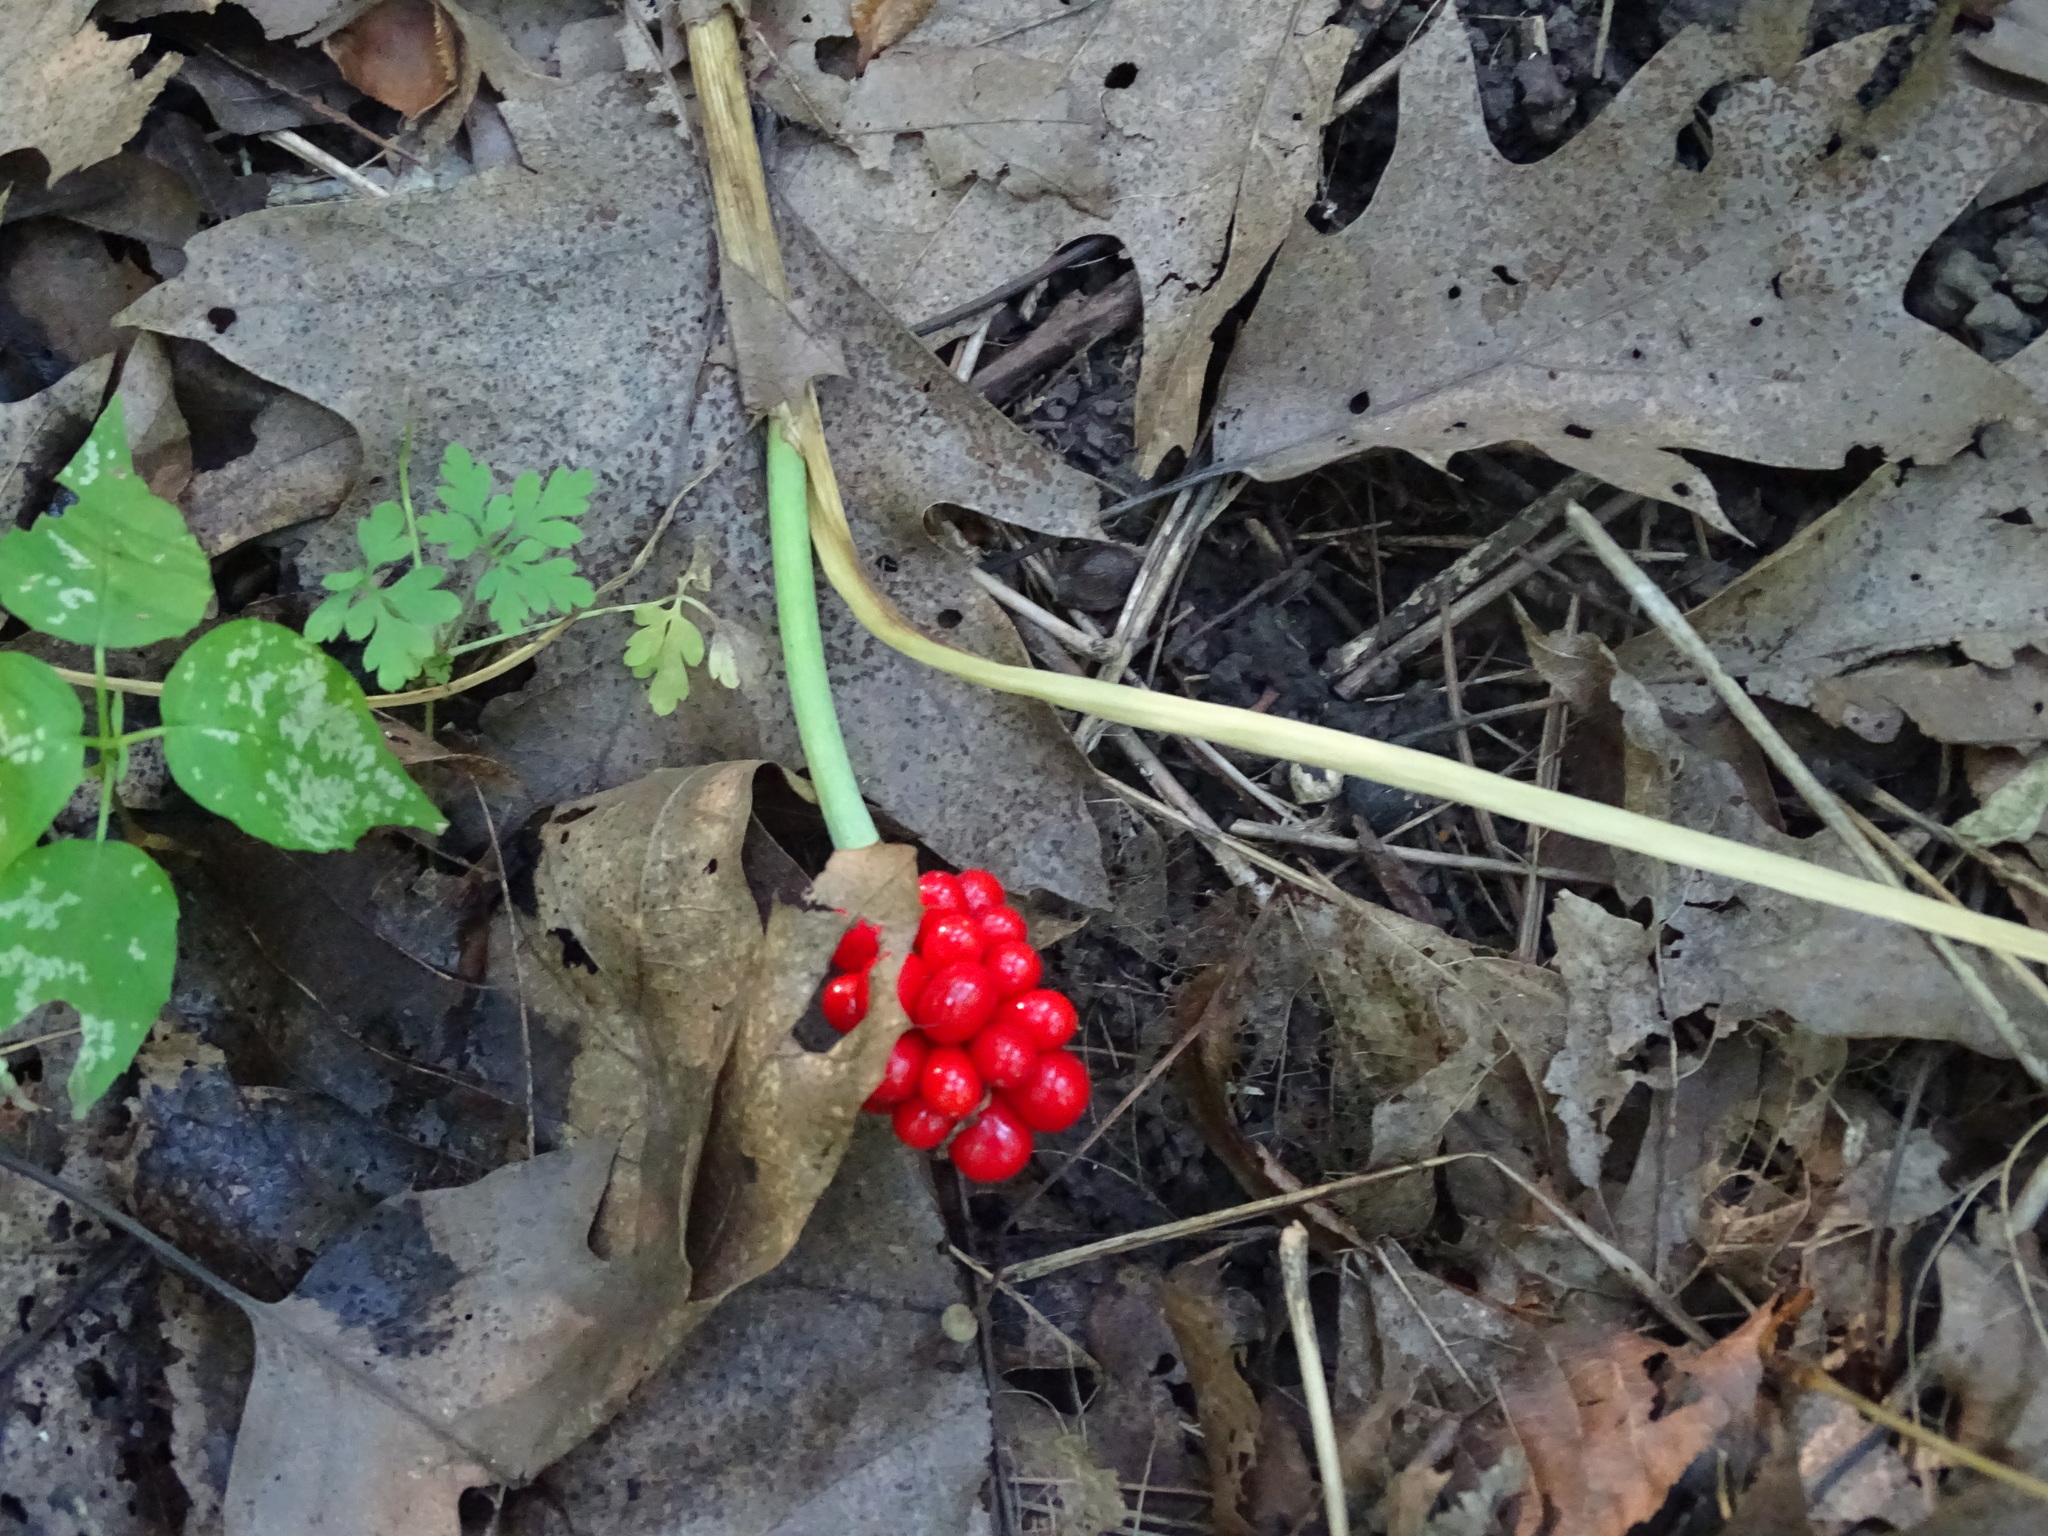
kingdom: Plantae
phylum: Tracheophyta
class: Liliopsida
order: Alismatales
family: Araceae
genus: Arisaema
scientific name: Arisaema triphyllum
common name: Jack-in-the-pulpit
